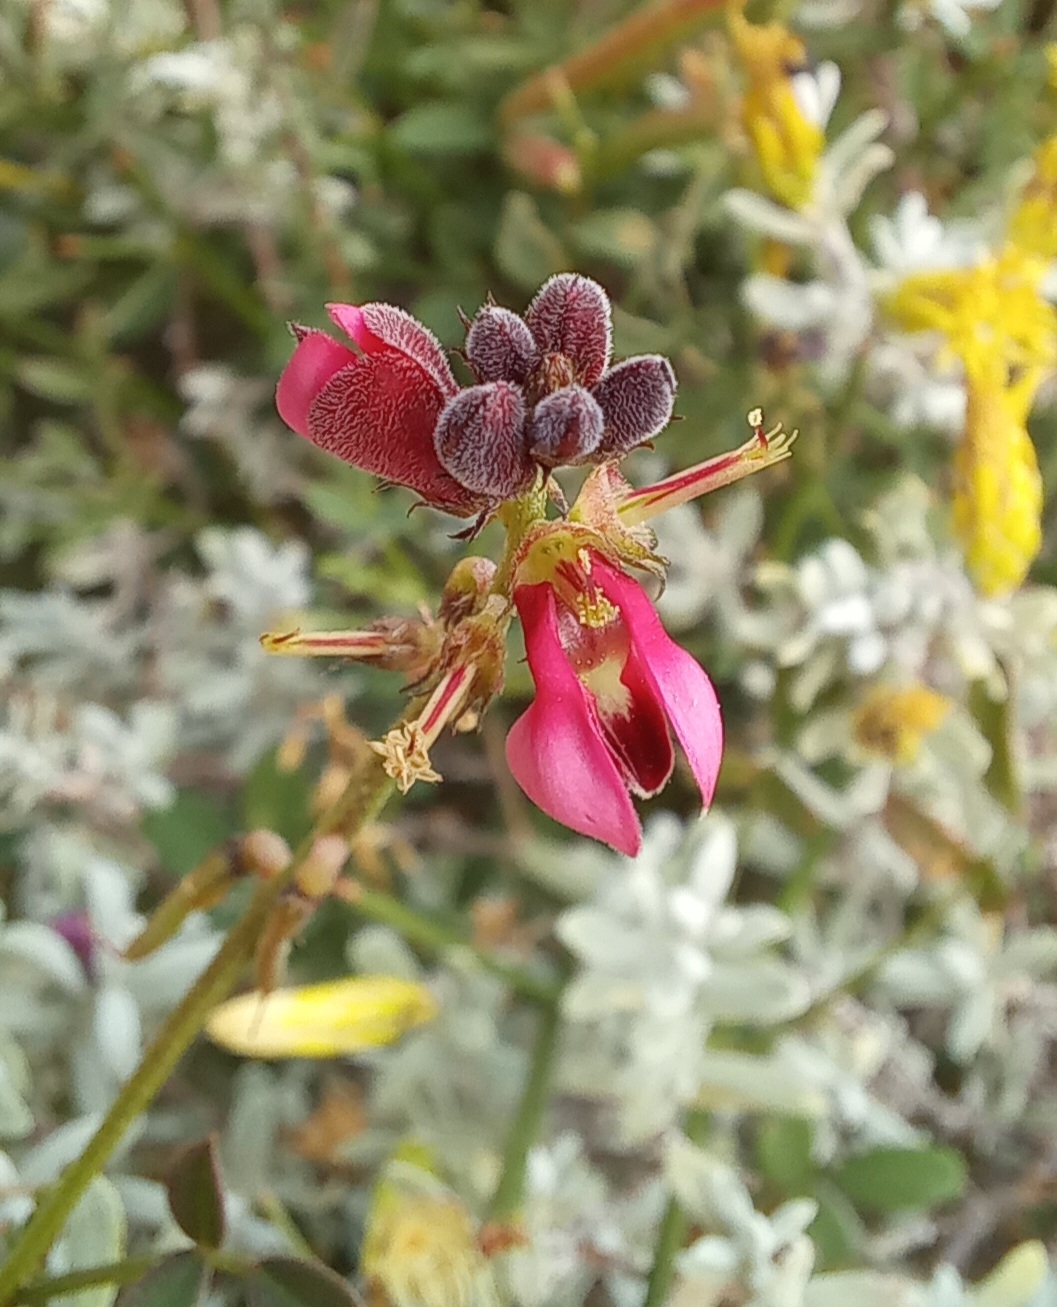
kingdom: Plantae
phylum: Tracheophyta
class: Magnoliopsida
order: Fabales
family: Fabaceae
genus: Indigofera
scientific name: Indigofera heterophylla
